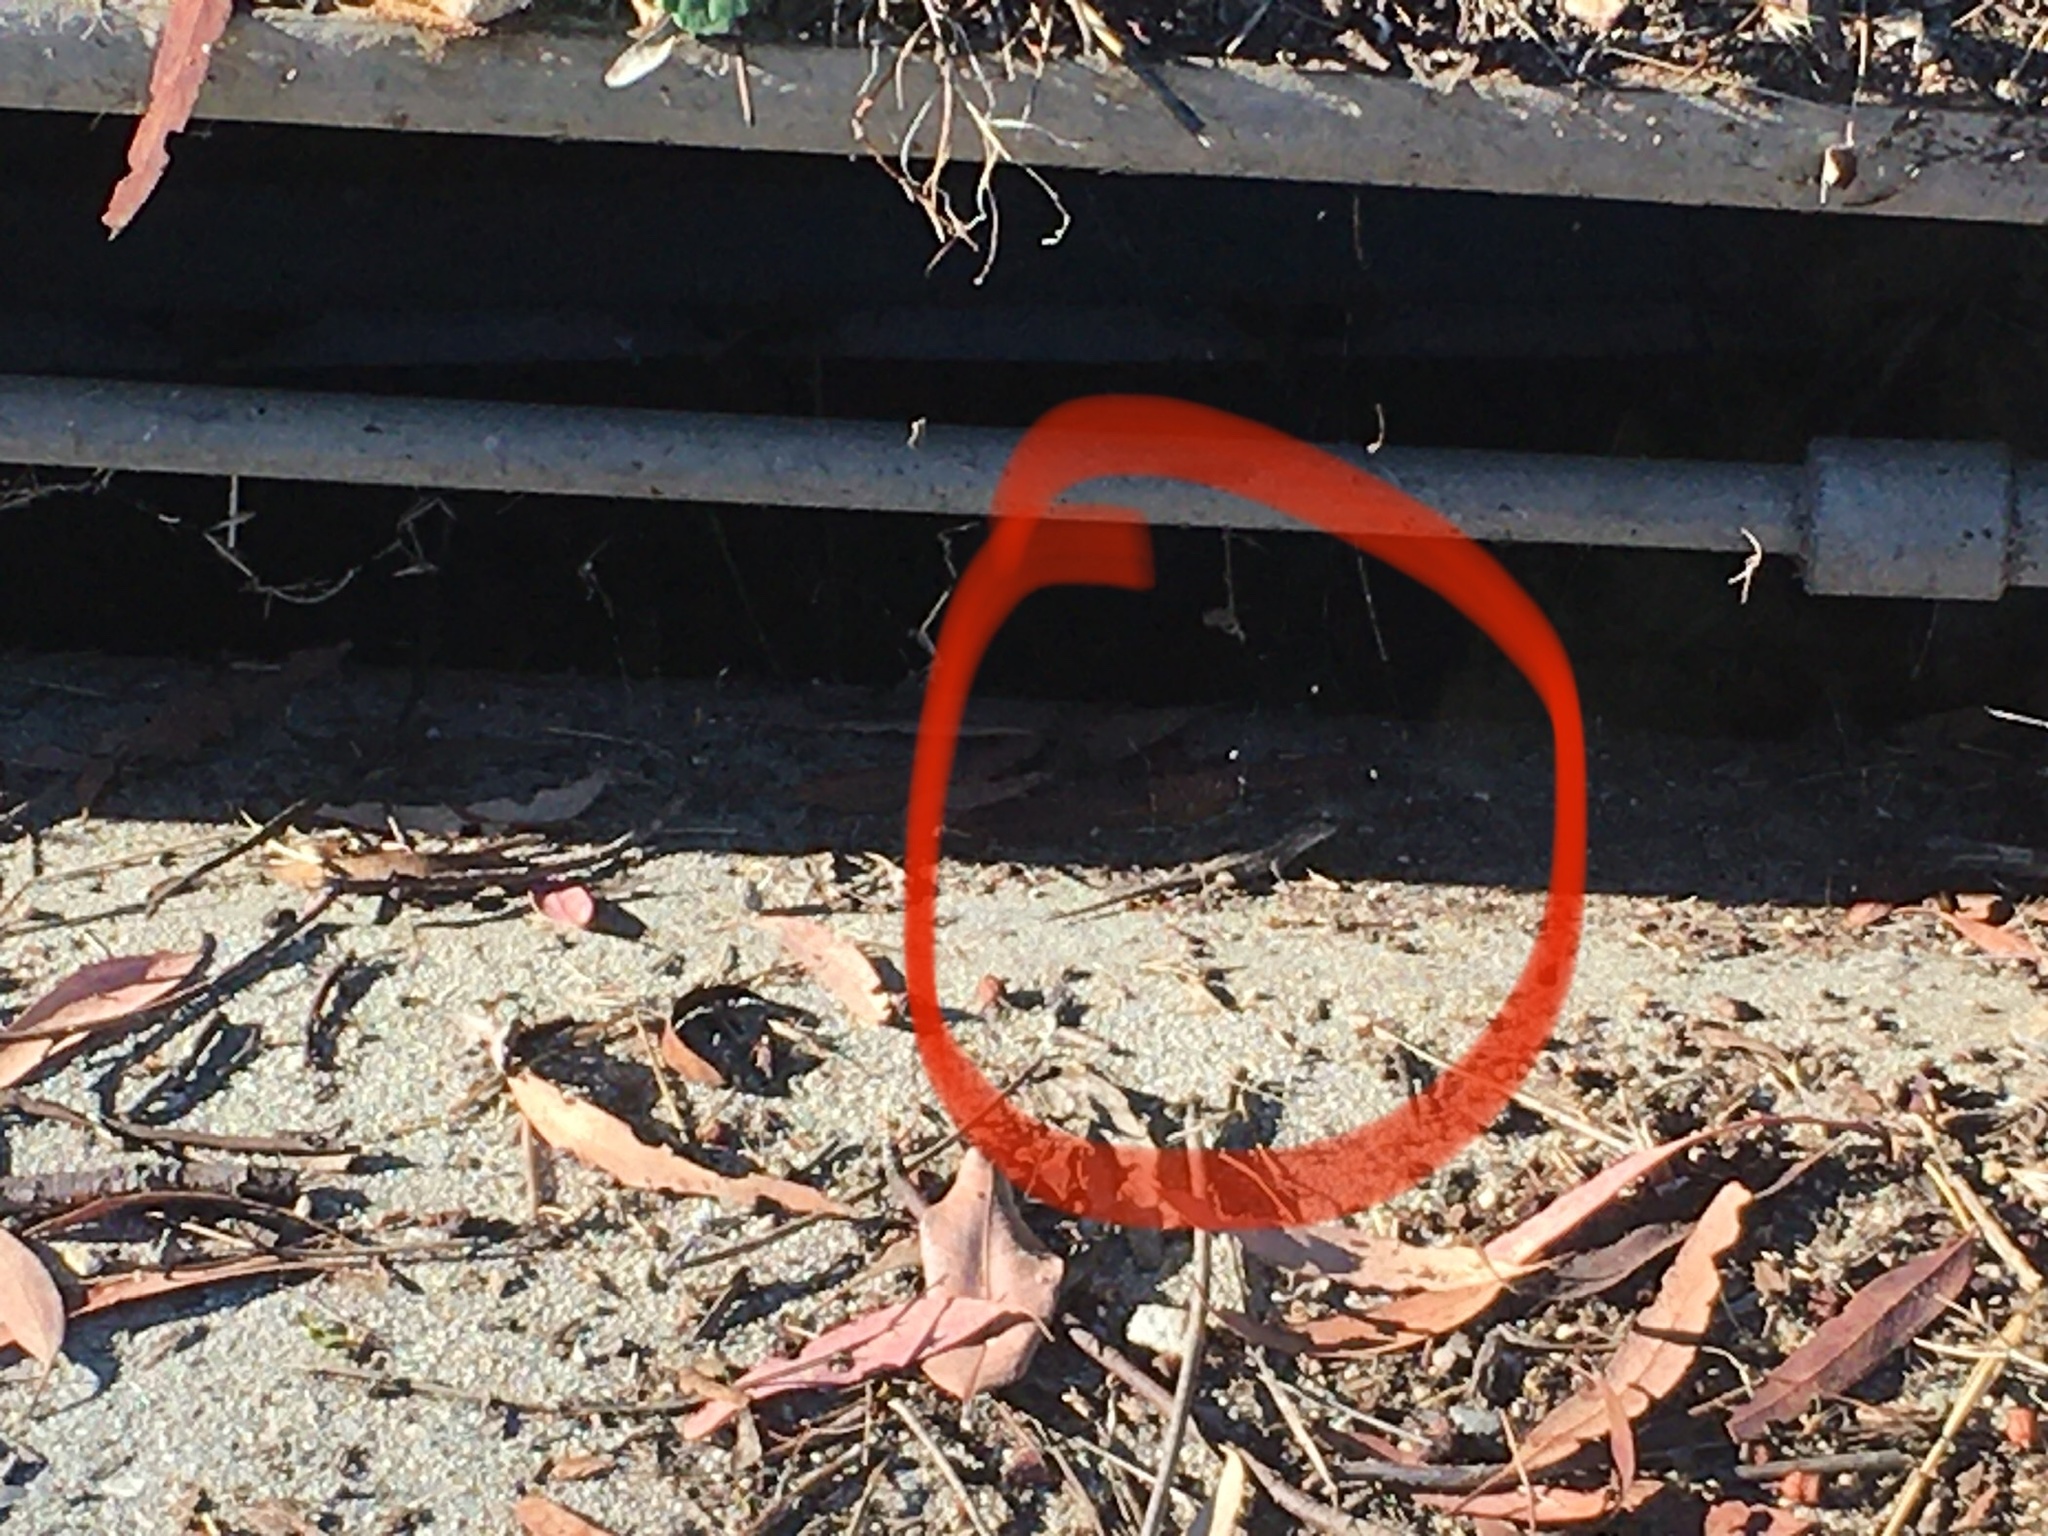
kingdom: Animalia
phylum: Chordata
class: Squamata
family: Phrynosomatidae
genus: Sceloporus
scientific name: Sceloporus occidentalis
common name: Western fence lizard
